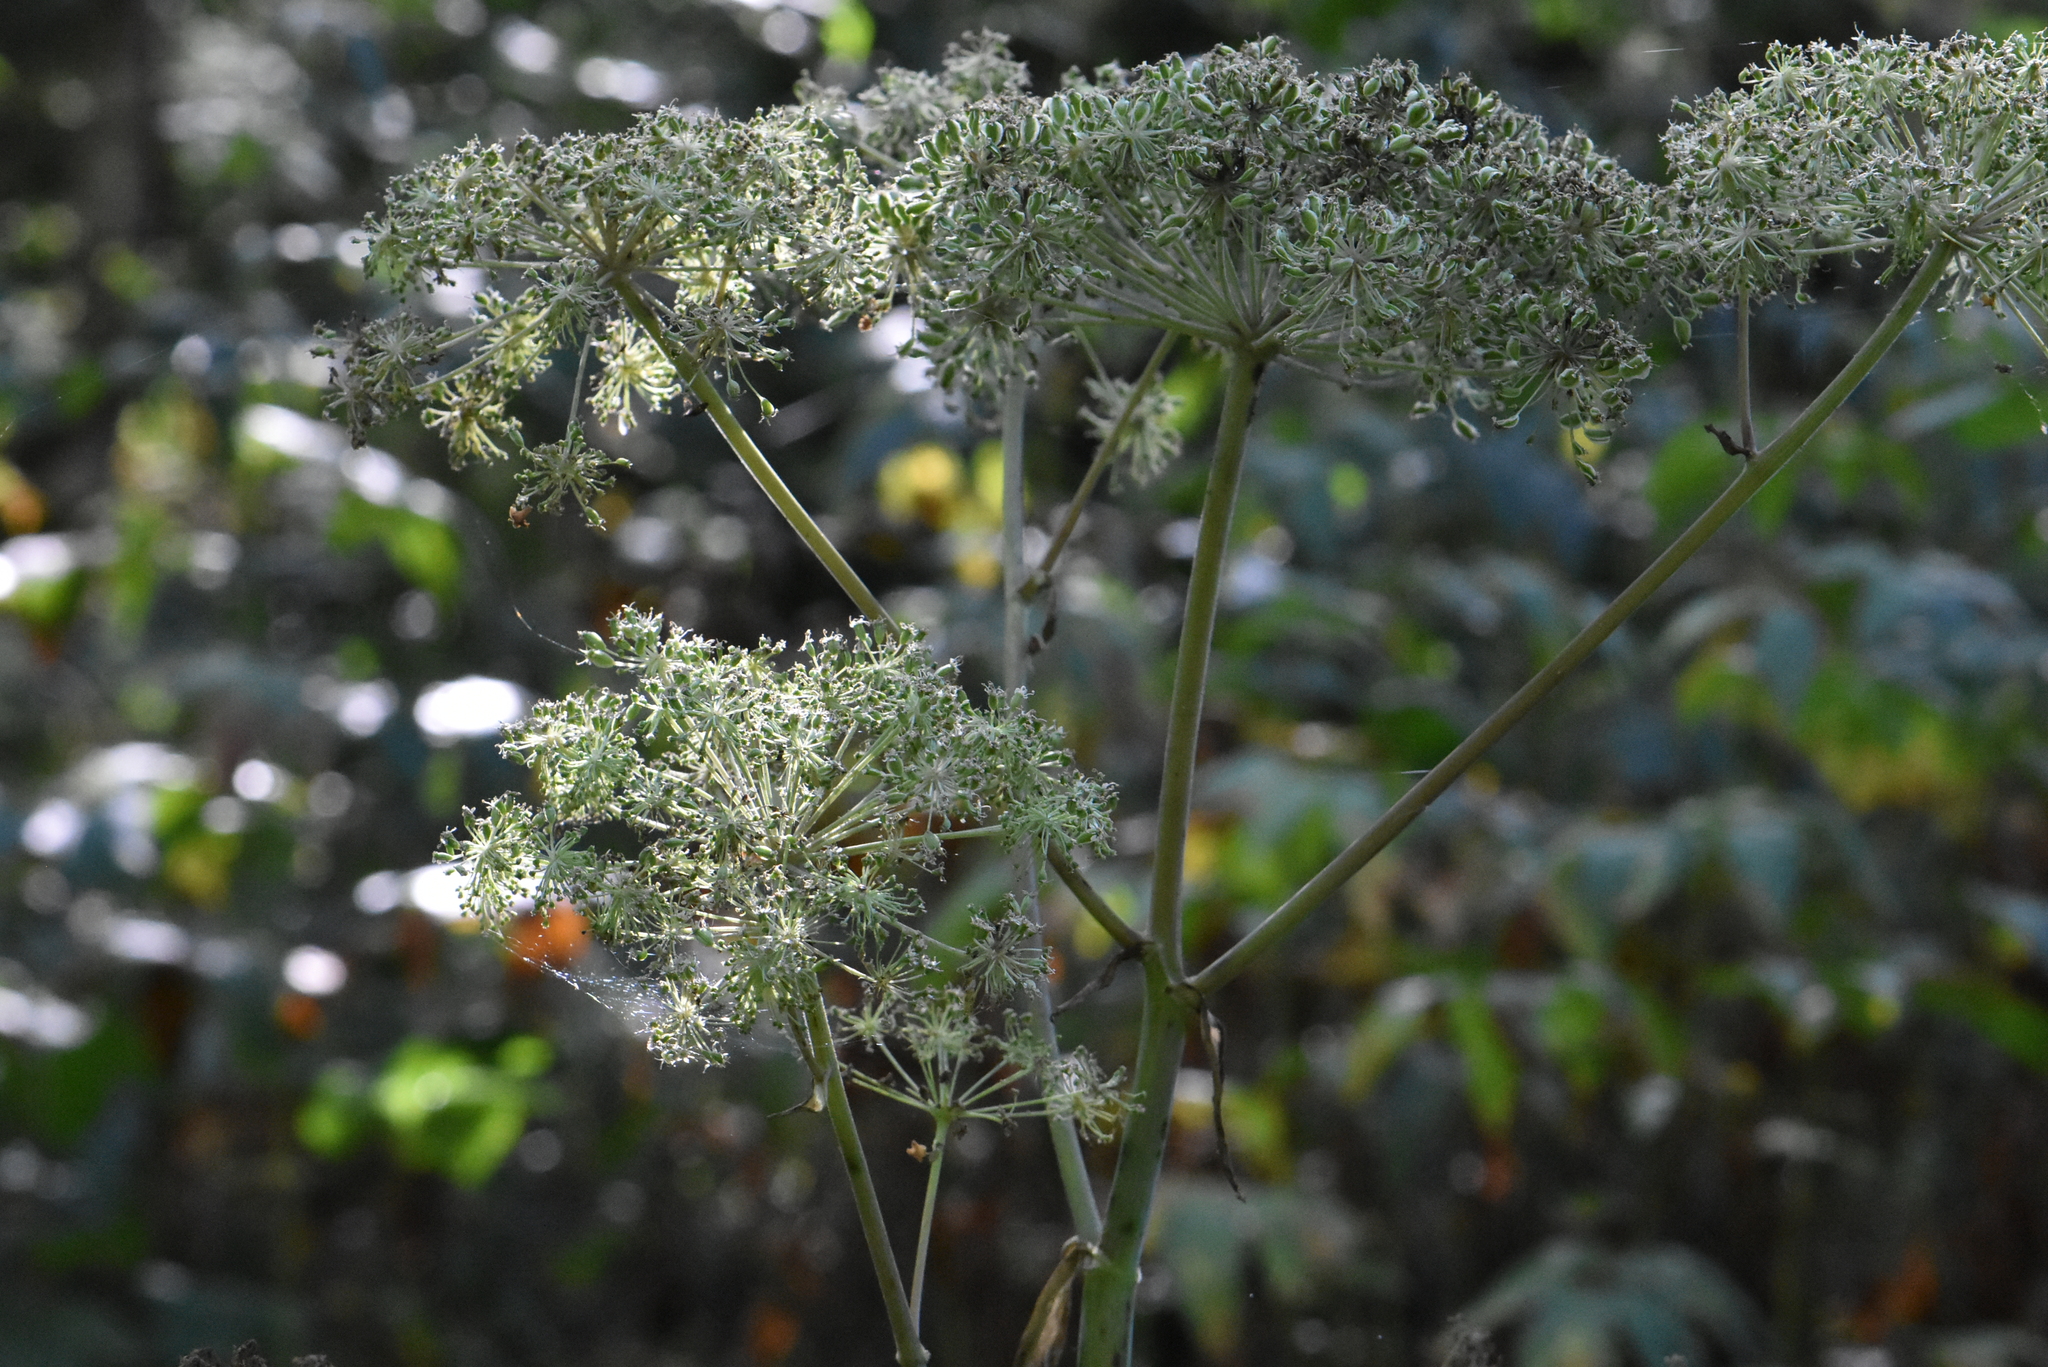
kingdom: Plantae
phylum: Tracheophyta
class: Magnoliopsida
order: Apiales
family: Apiaceae
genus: Angelica
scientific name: Angelica sylvestris
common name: Wild angelica
